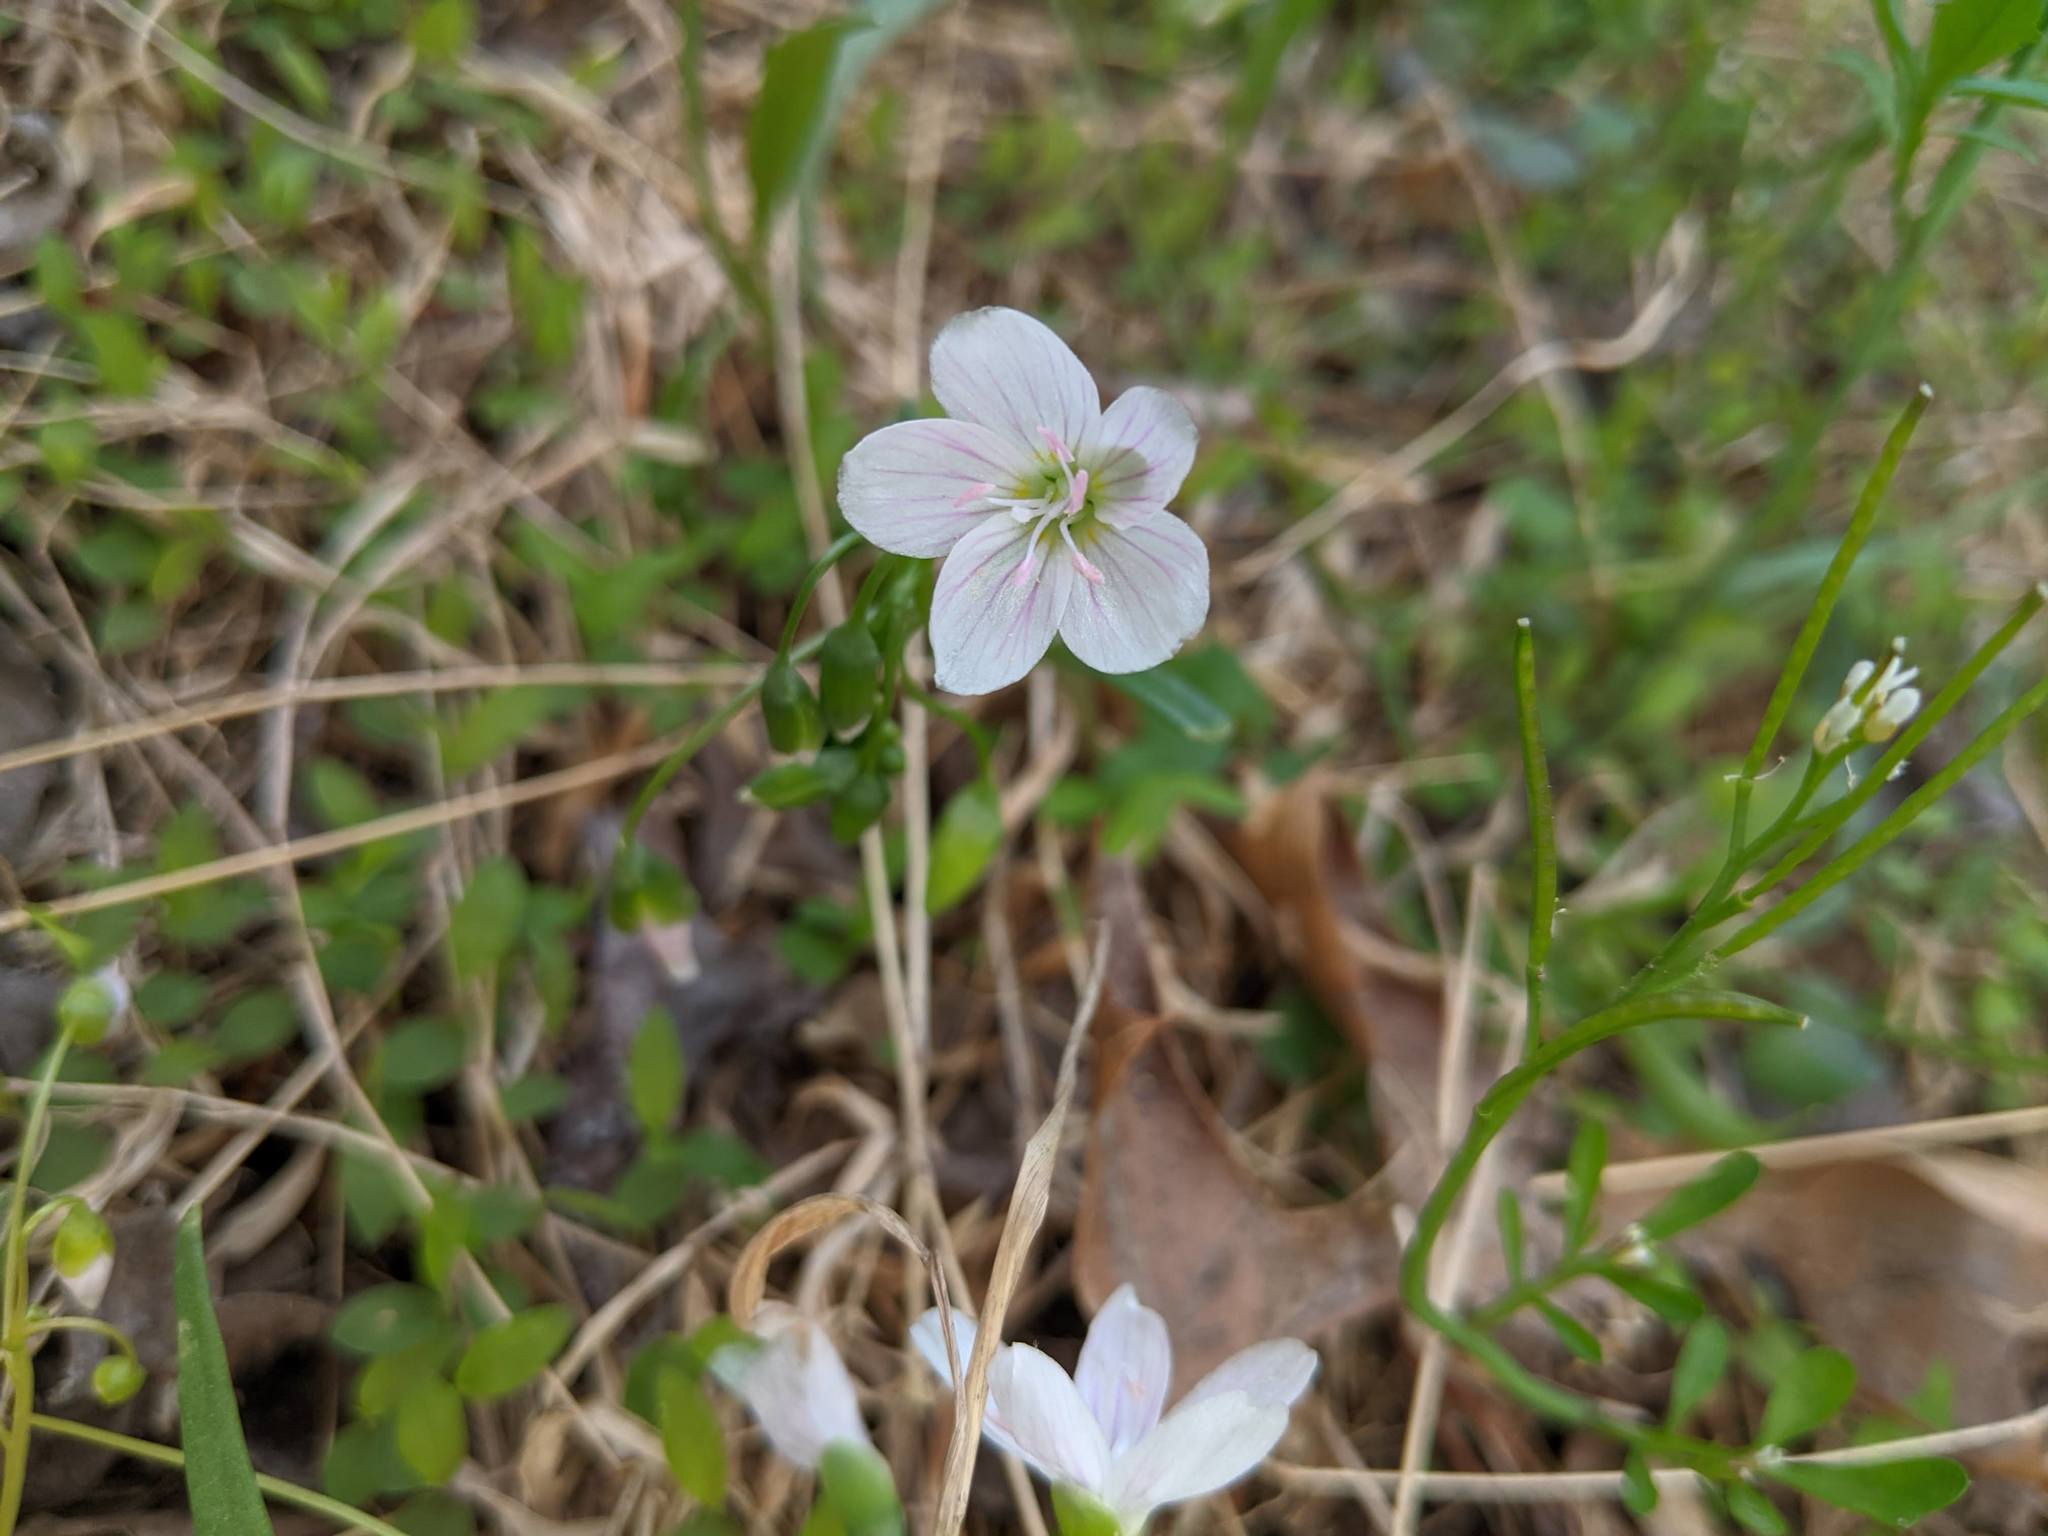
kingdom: Plantae
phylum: Tracheophyta
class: Magnoliopsida
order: Caryophyllales
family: Montiaceae
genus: Claytonia
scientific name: Claytonia virginica
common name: Virginia springbeauty
